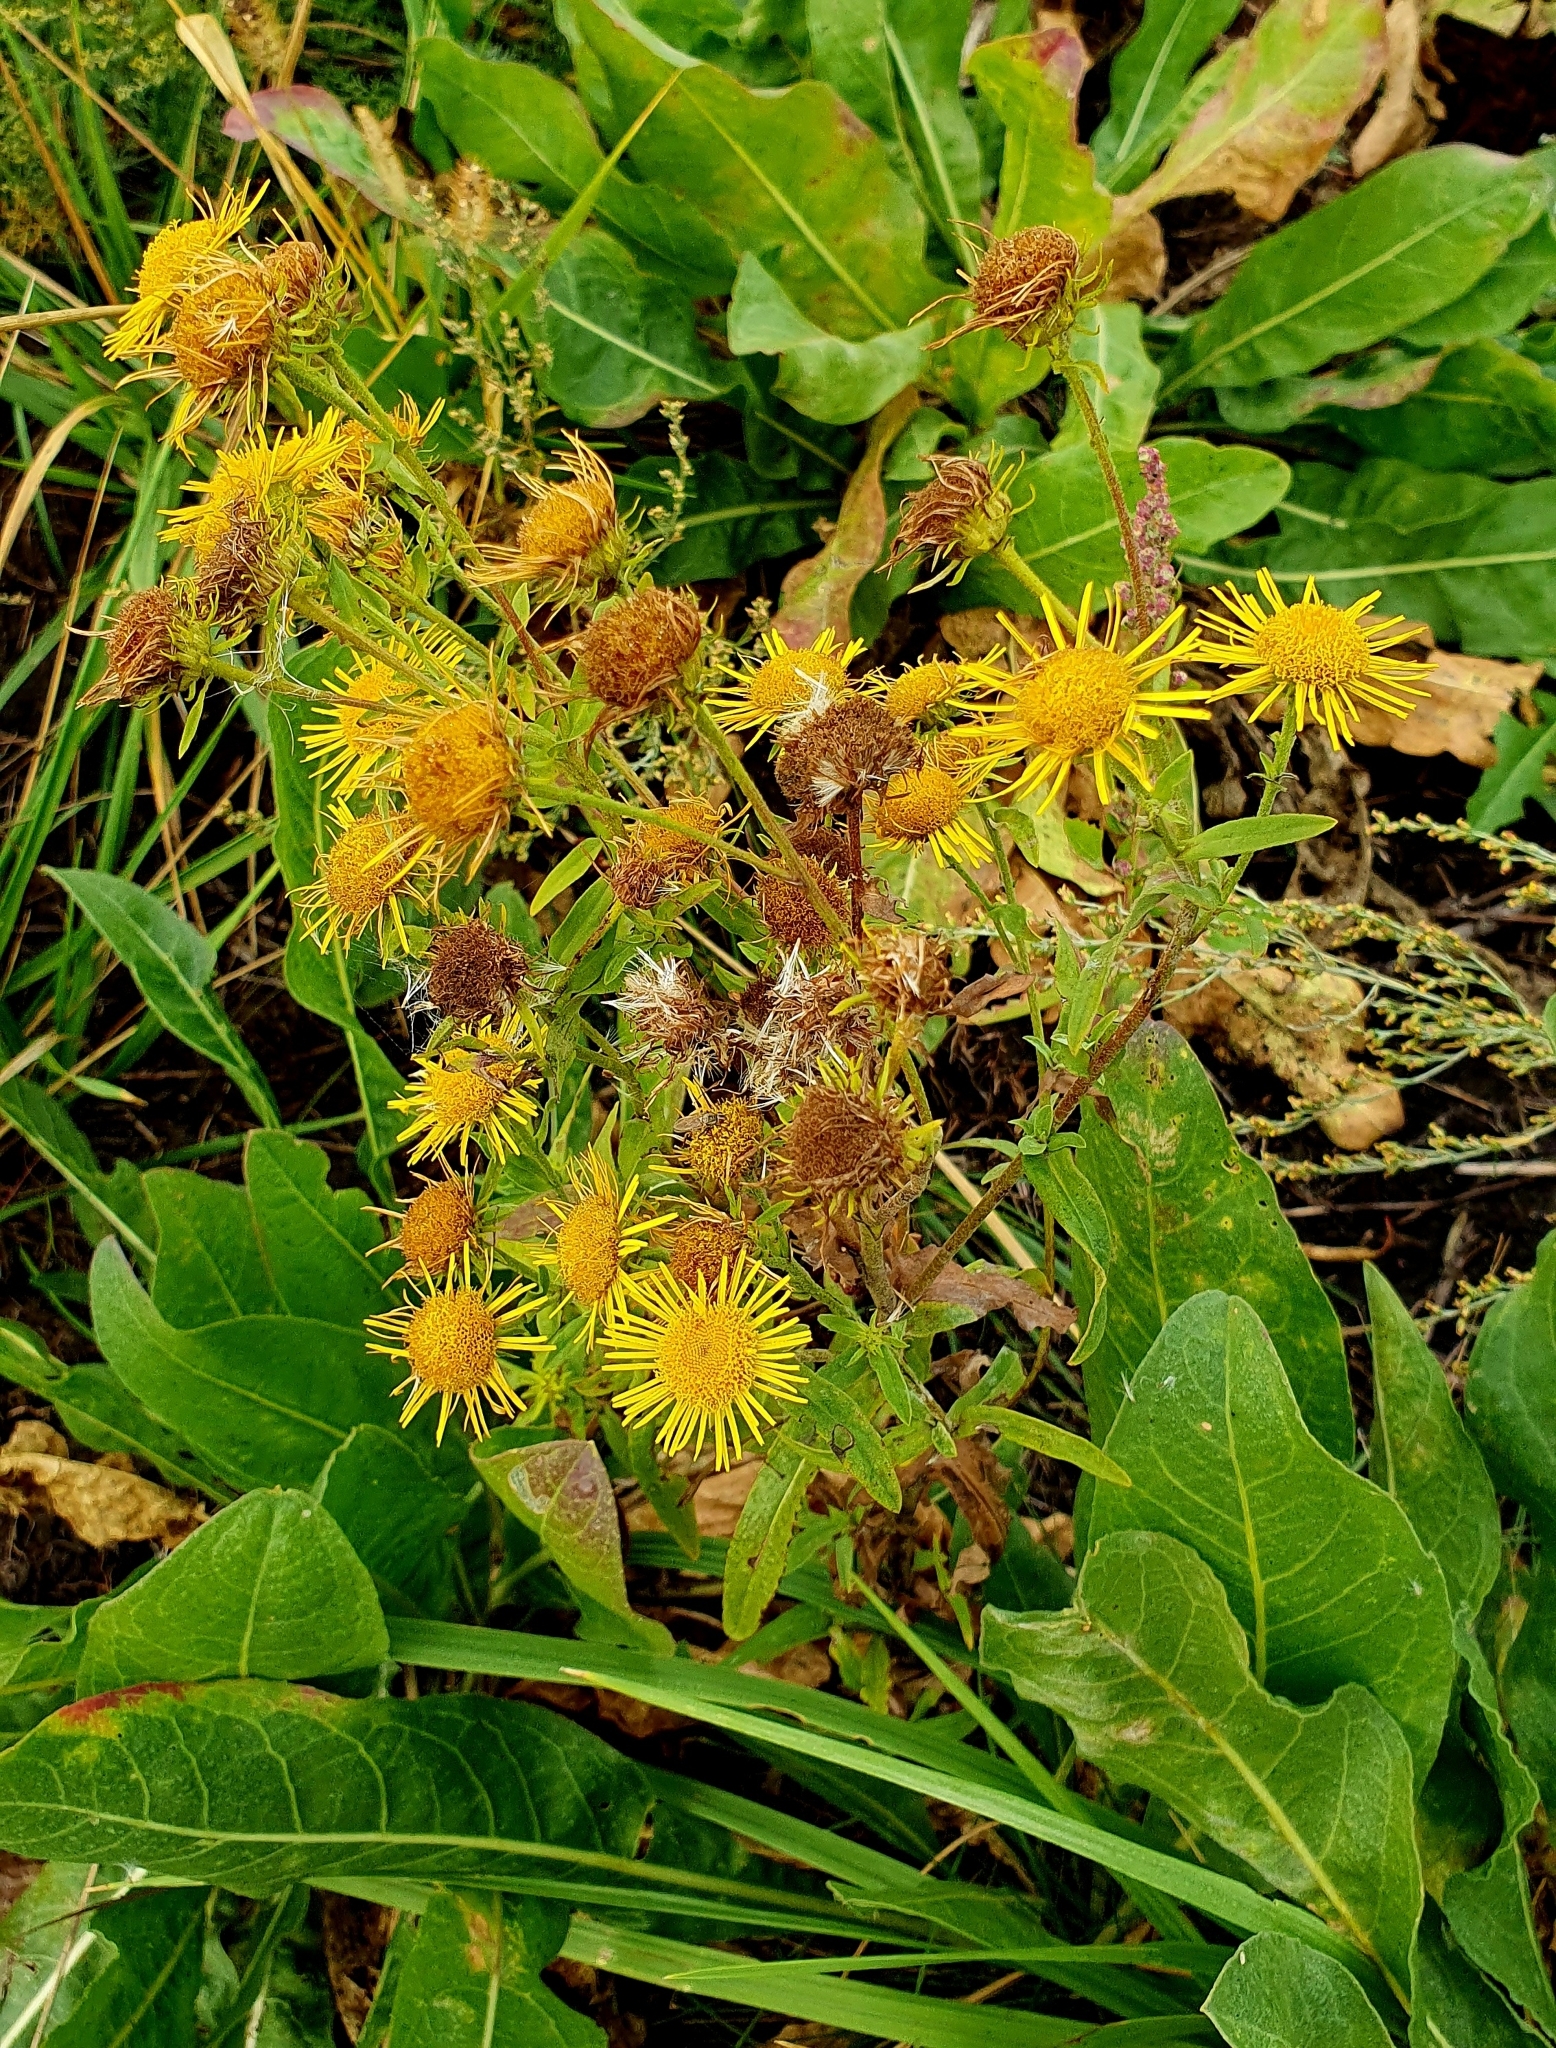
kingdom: Plantae
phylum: Tracheophyta
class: Magnoliopsida
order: Asterales
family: Asteraceae
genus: Pentanema
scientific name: Pentanema britannicum
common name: British elecampane
